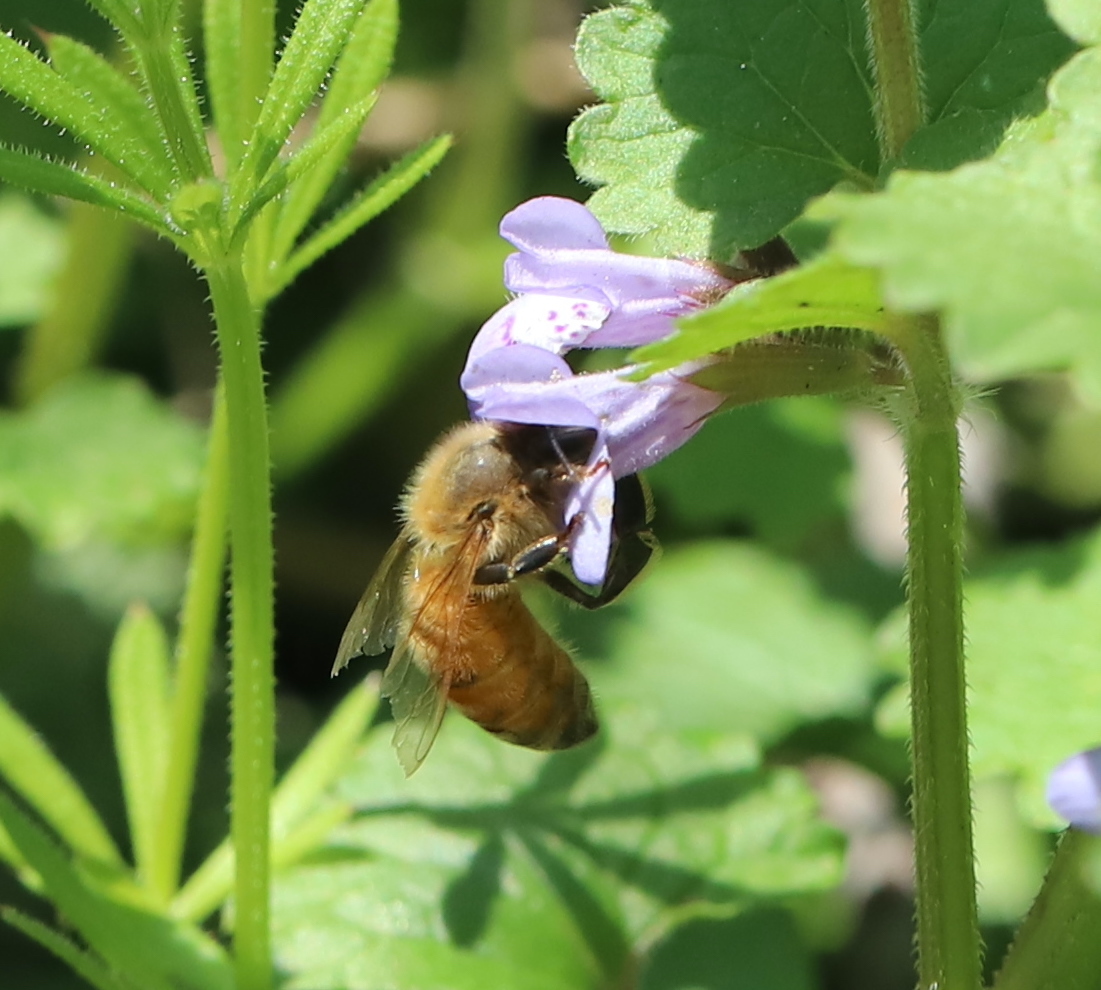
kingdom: Animalia
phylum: Arthropoda
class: Insecta
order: Hymenoptera
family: Apidae
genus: Apis
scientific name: Apis mellifera
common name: Honey bee
